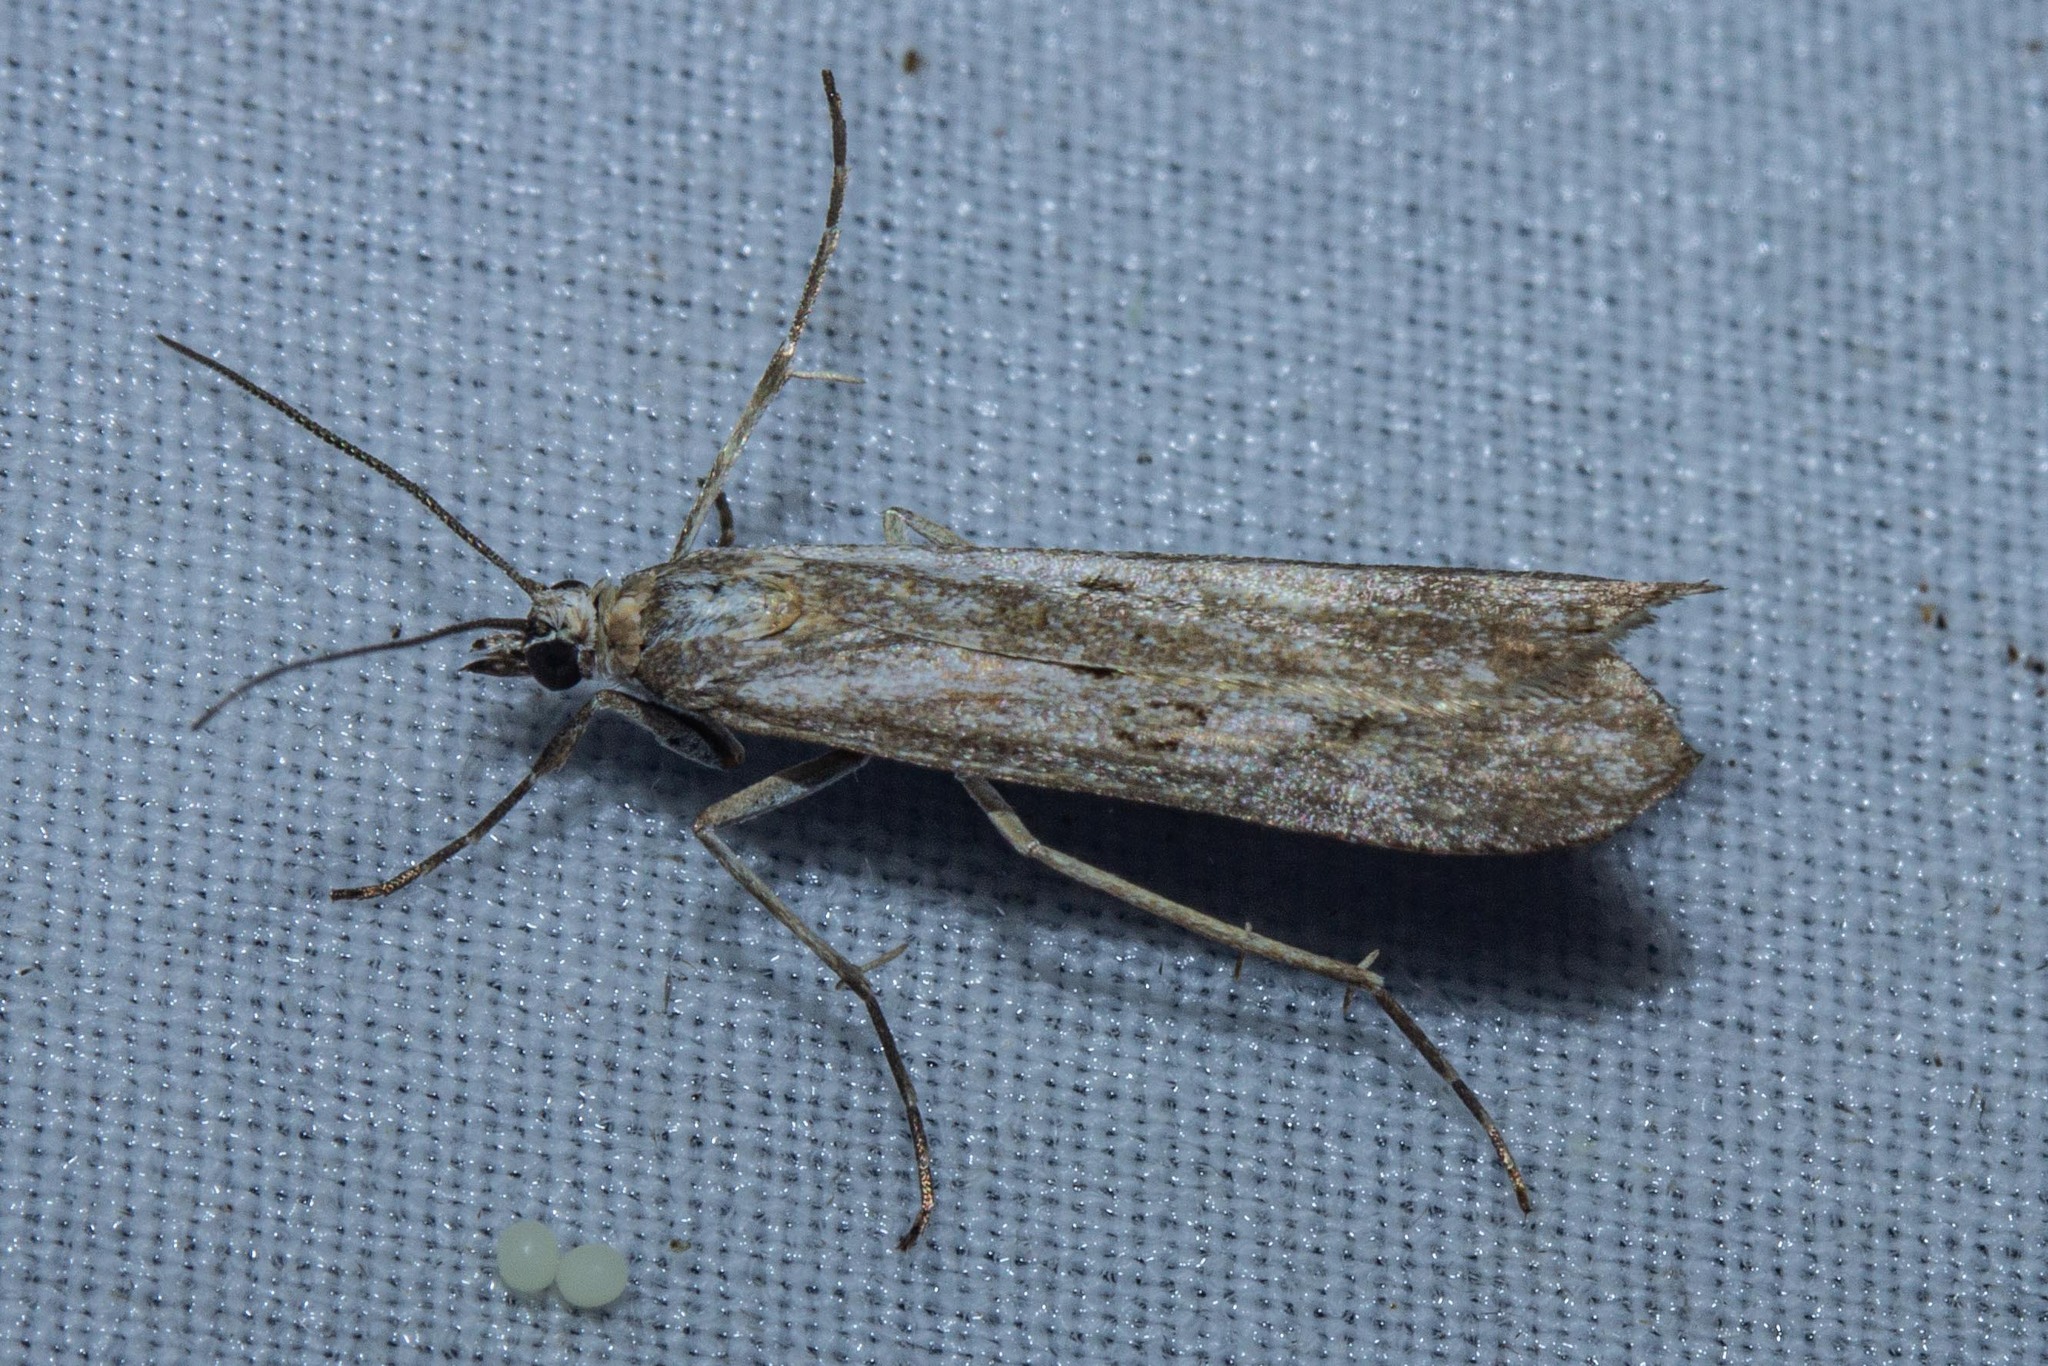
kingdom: Animalia
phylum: Arthropoda
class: Insecta
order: Lepidoptera
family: Crambidae
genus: Eudonia
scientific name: Eudonia leptalea
